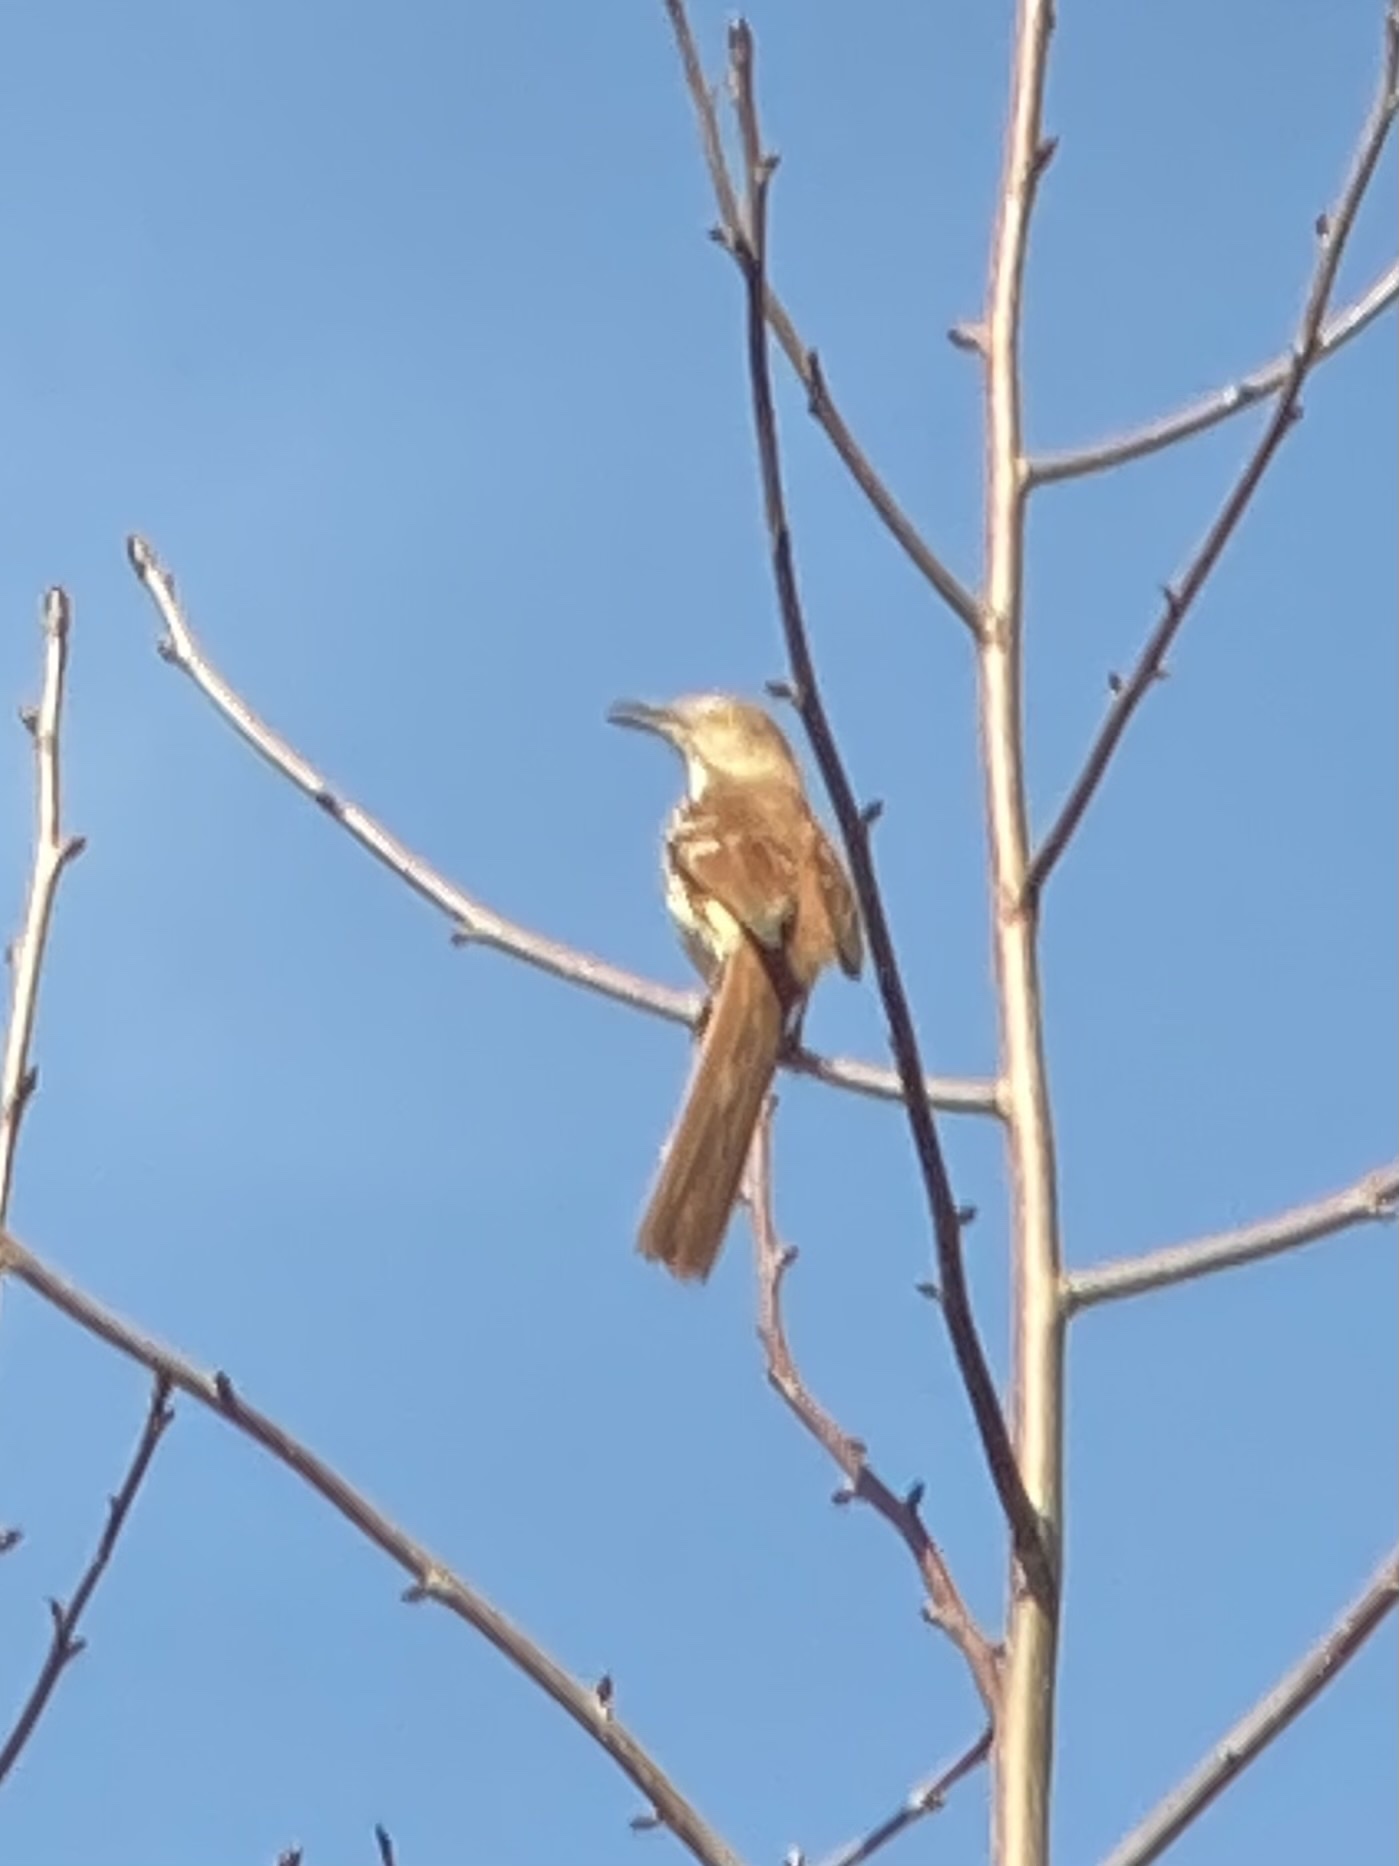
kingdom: Animalia
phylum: Chordata
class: Aves
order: Passeriformes
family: Mimidae
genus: Toxostoma
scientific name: Toxostoma rufum
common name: Brown thrasher
